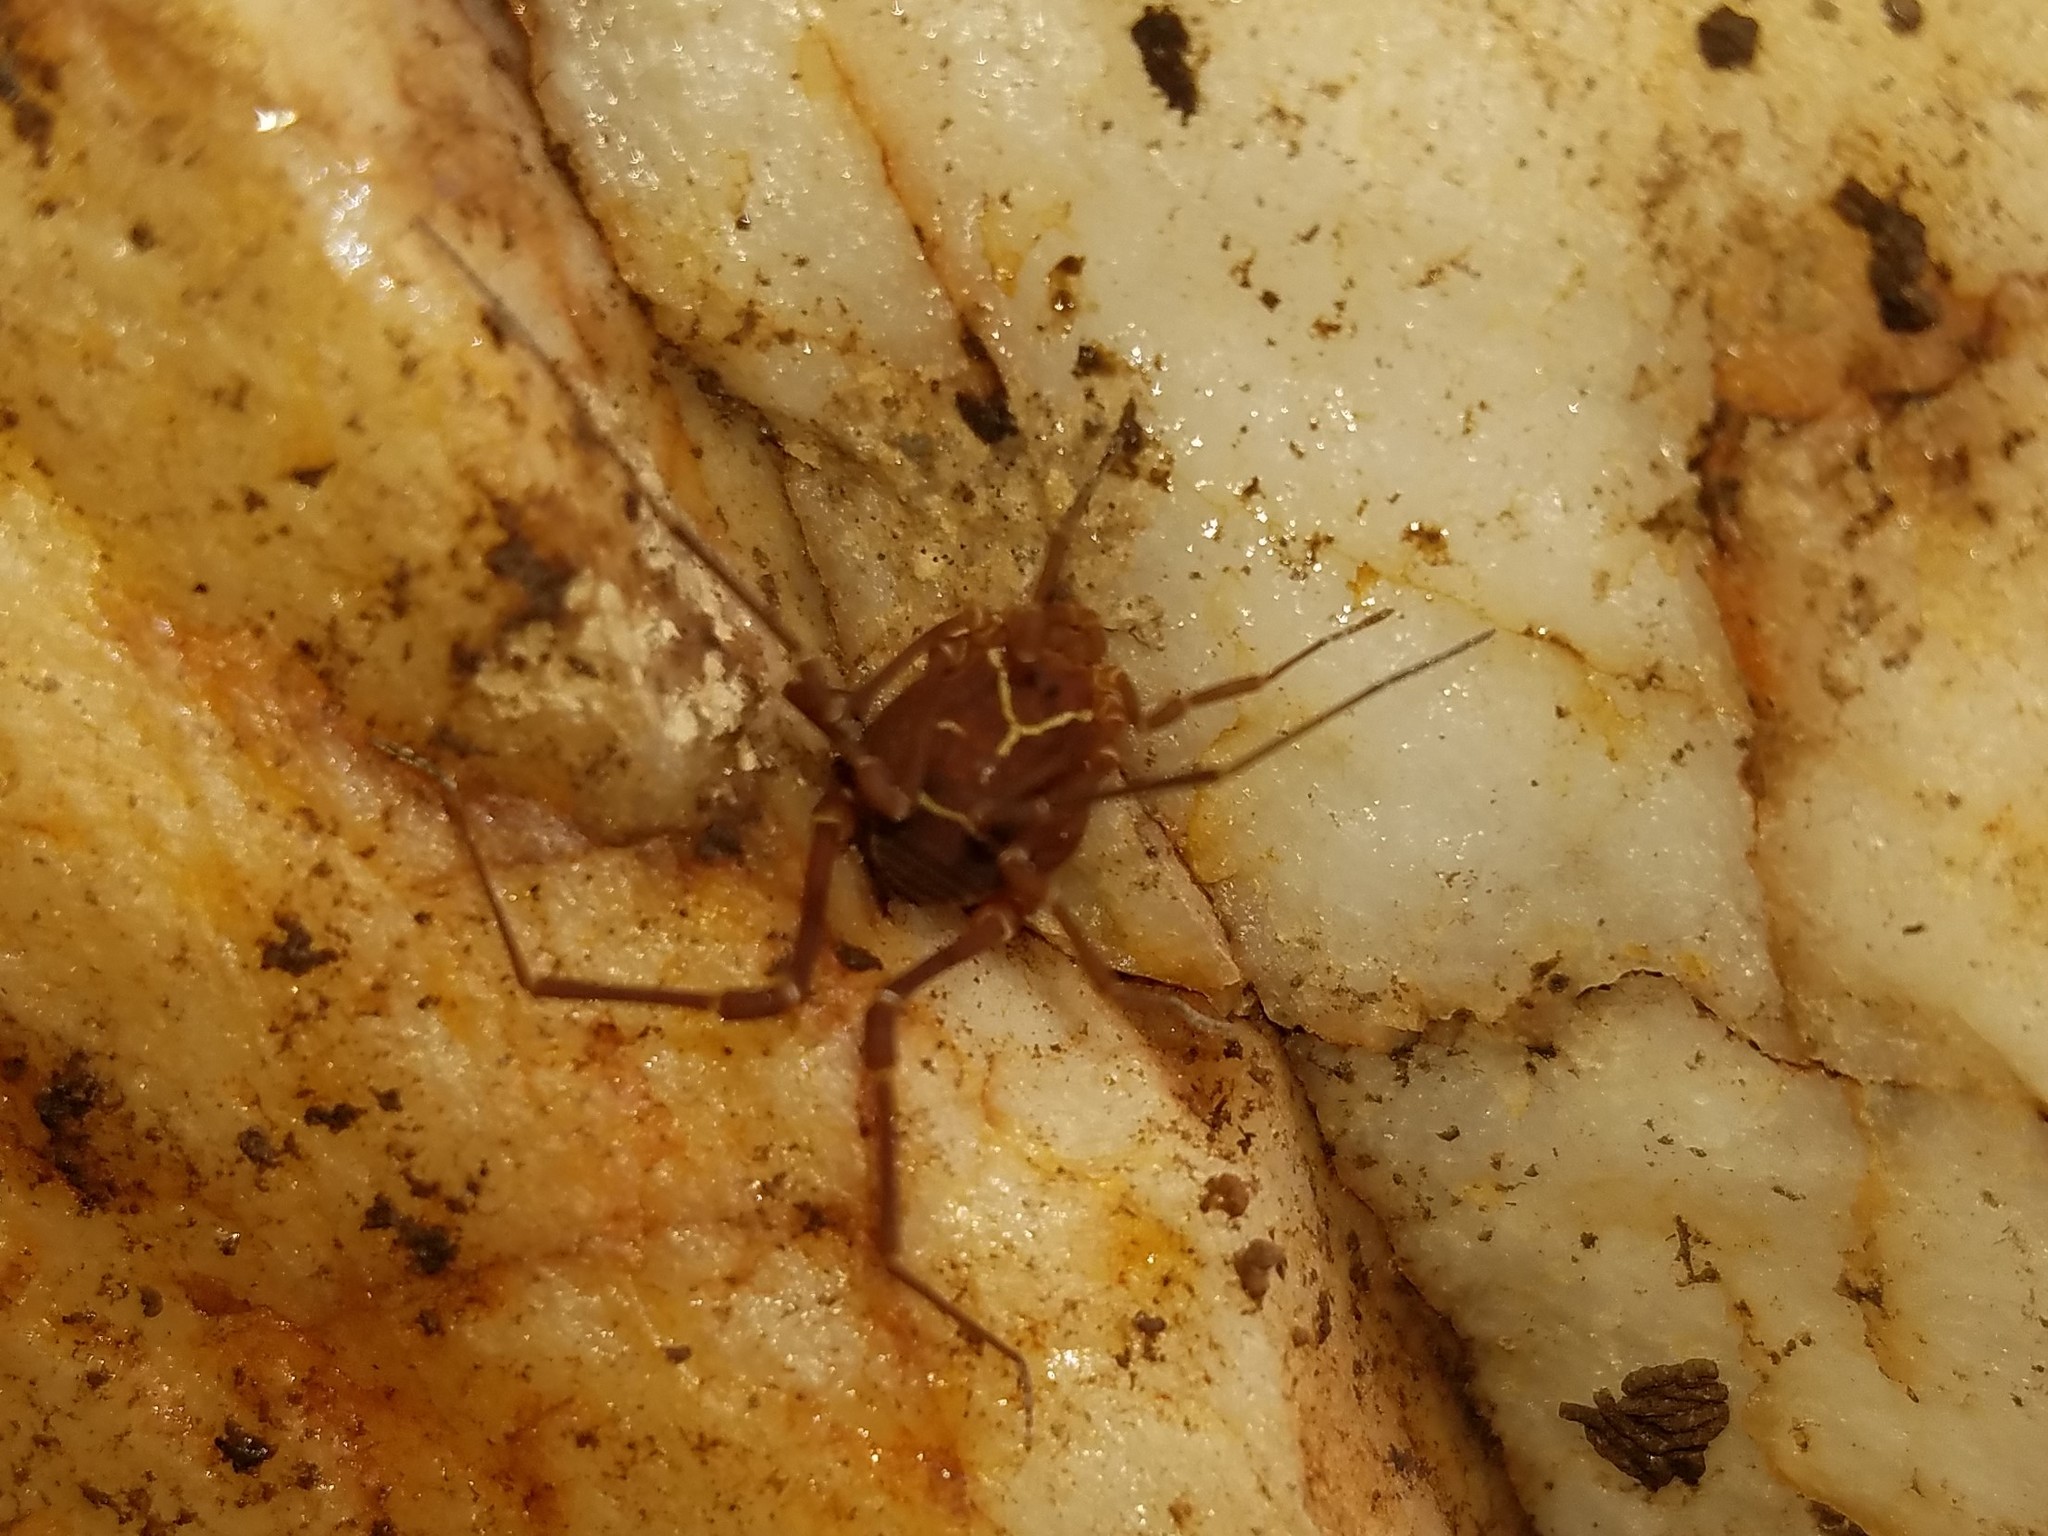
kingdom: Animalia
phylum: Arthropoda
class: Arachnida
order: Opiliones
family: Cosmetidae
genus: Libitioides
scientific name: Libitioides sayi
